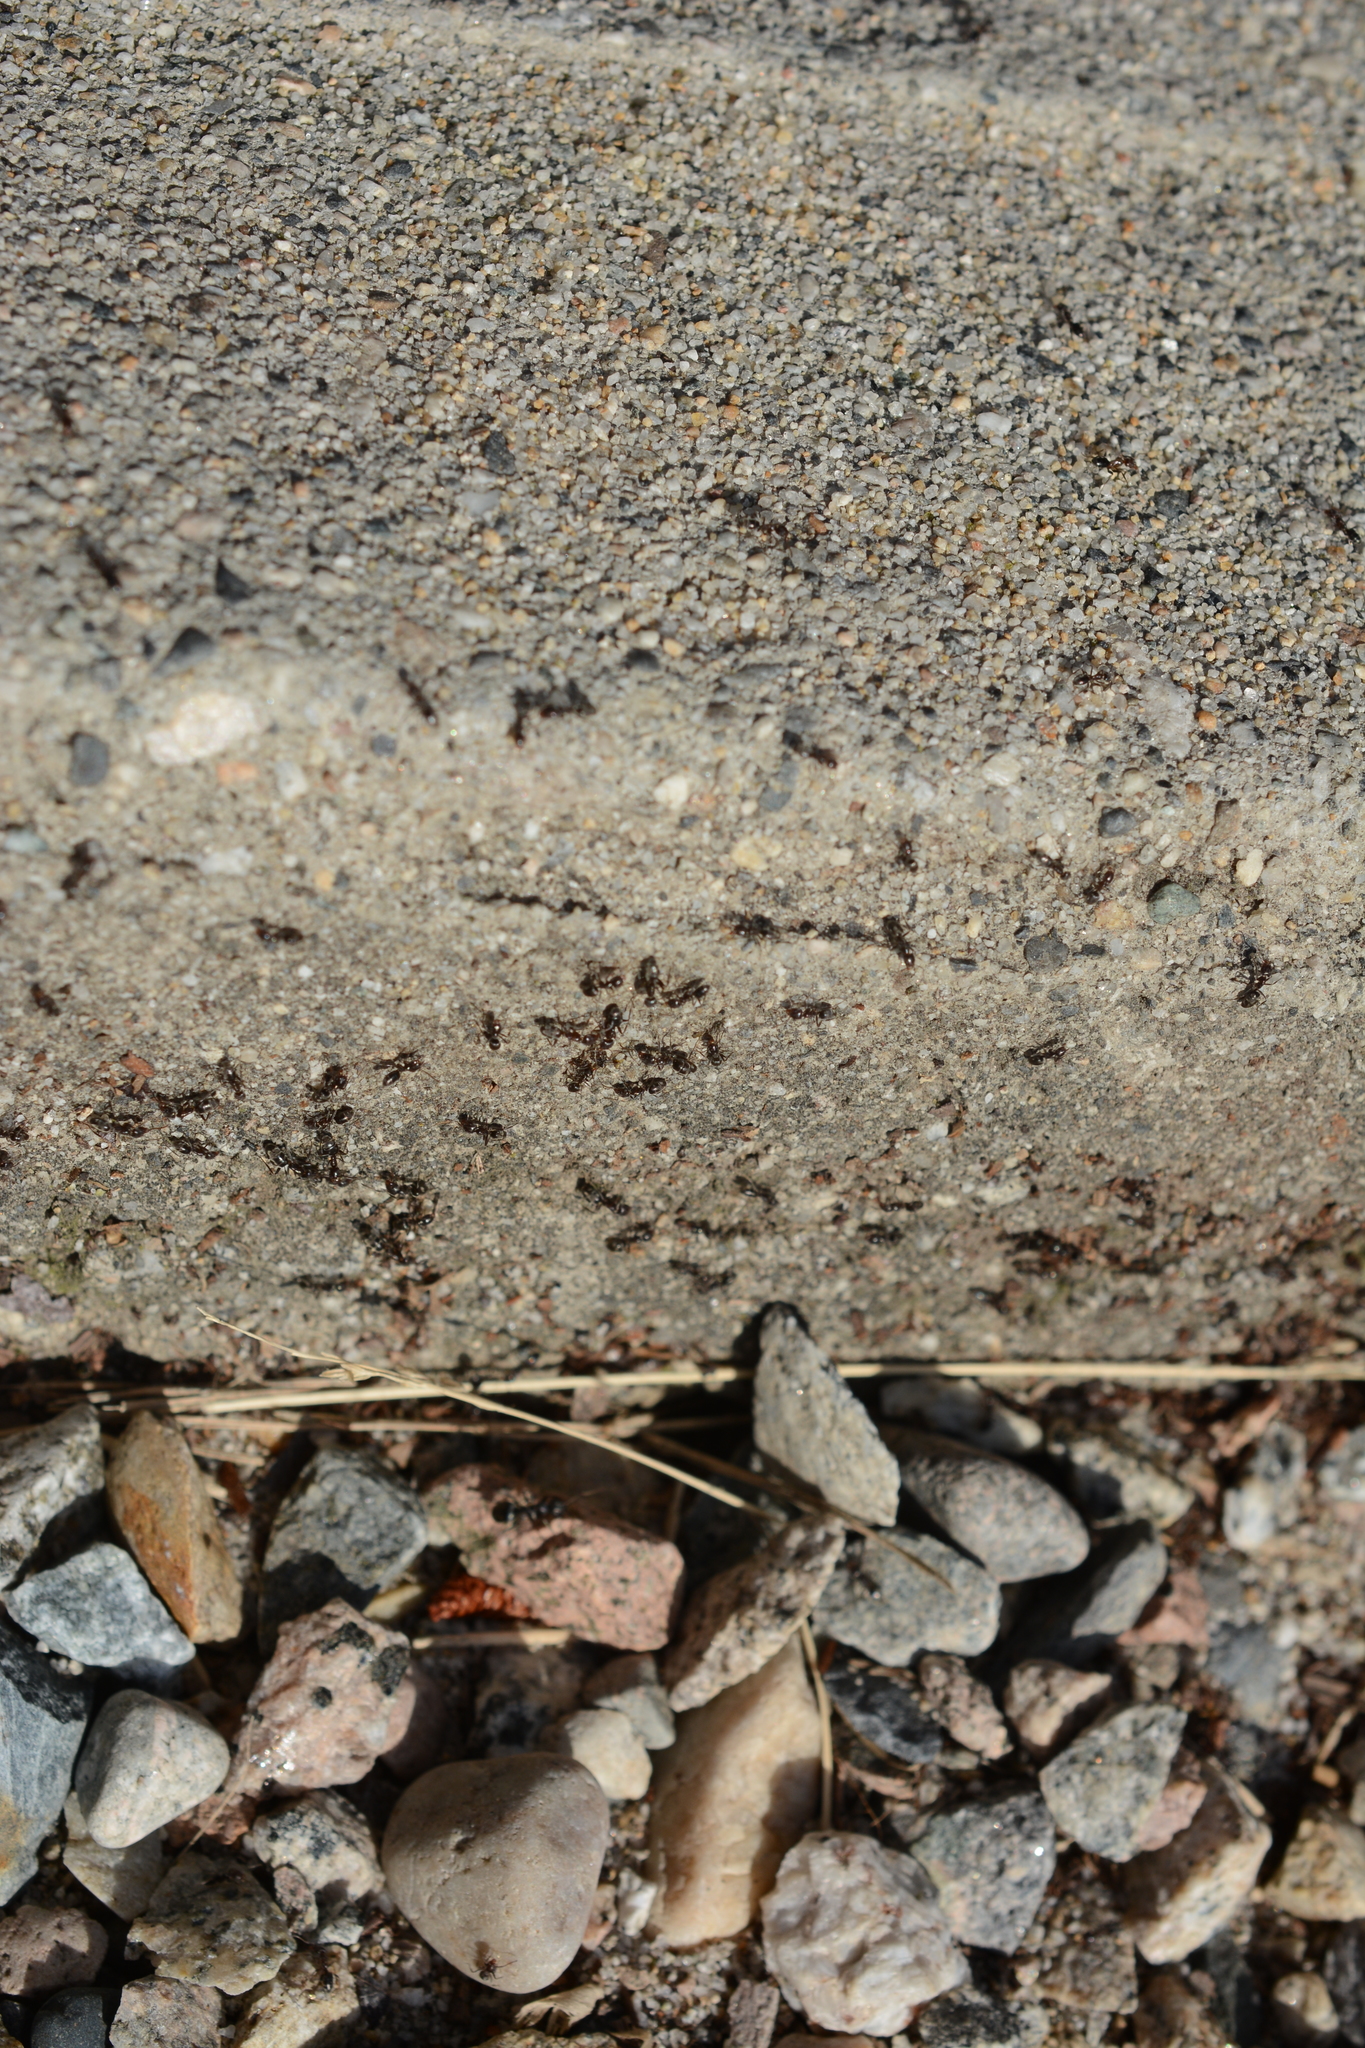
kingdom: Animalia
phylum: Arthropoda
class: Insecta
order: Hymenoptera
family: Formicidae
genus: Liometopum
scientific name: Liometopum luctuosum
